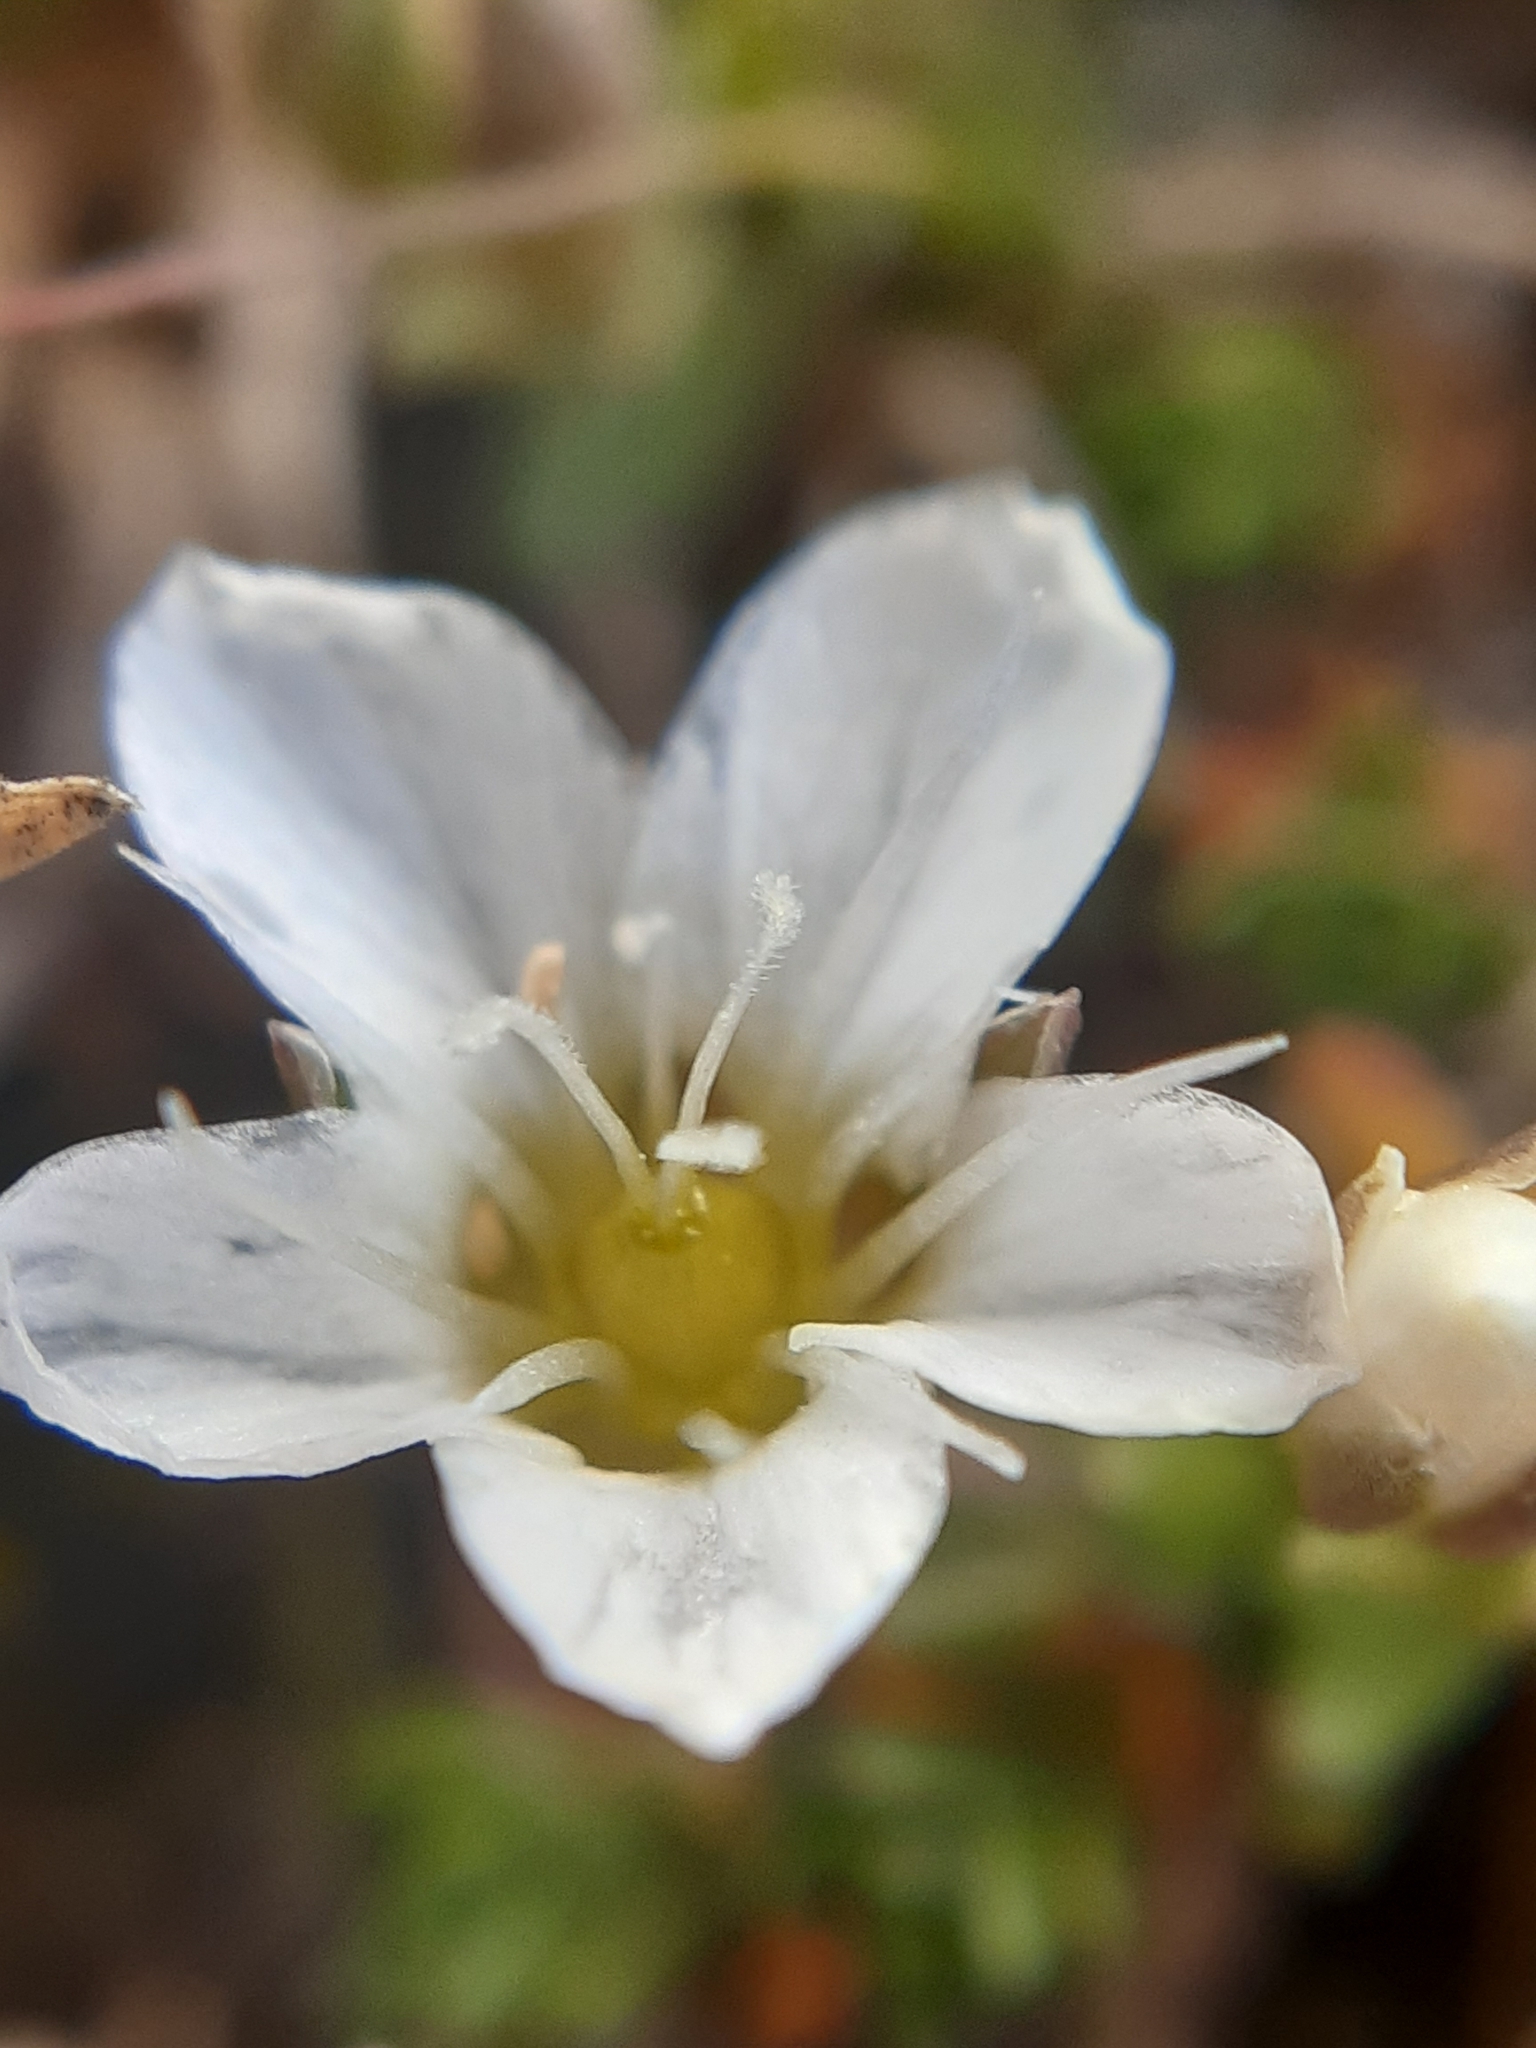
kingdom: Plantae
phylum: Tracheophyta
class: Magnoliopsida
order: Caryophyllales
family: Caryophyllaceae
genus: Arenaria
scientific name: Arenaria ciliata
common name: Fringed sandwort
